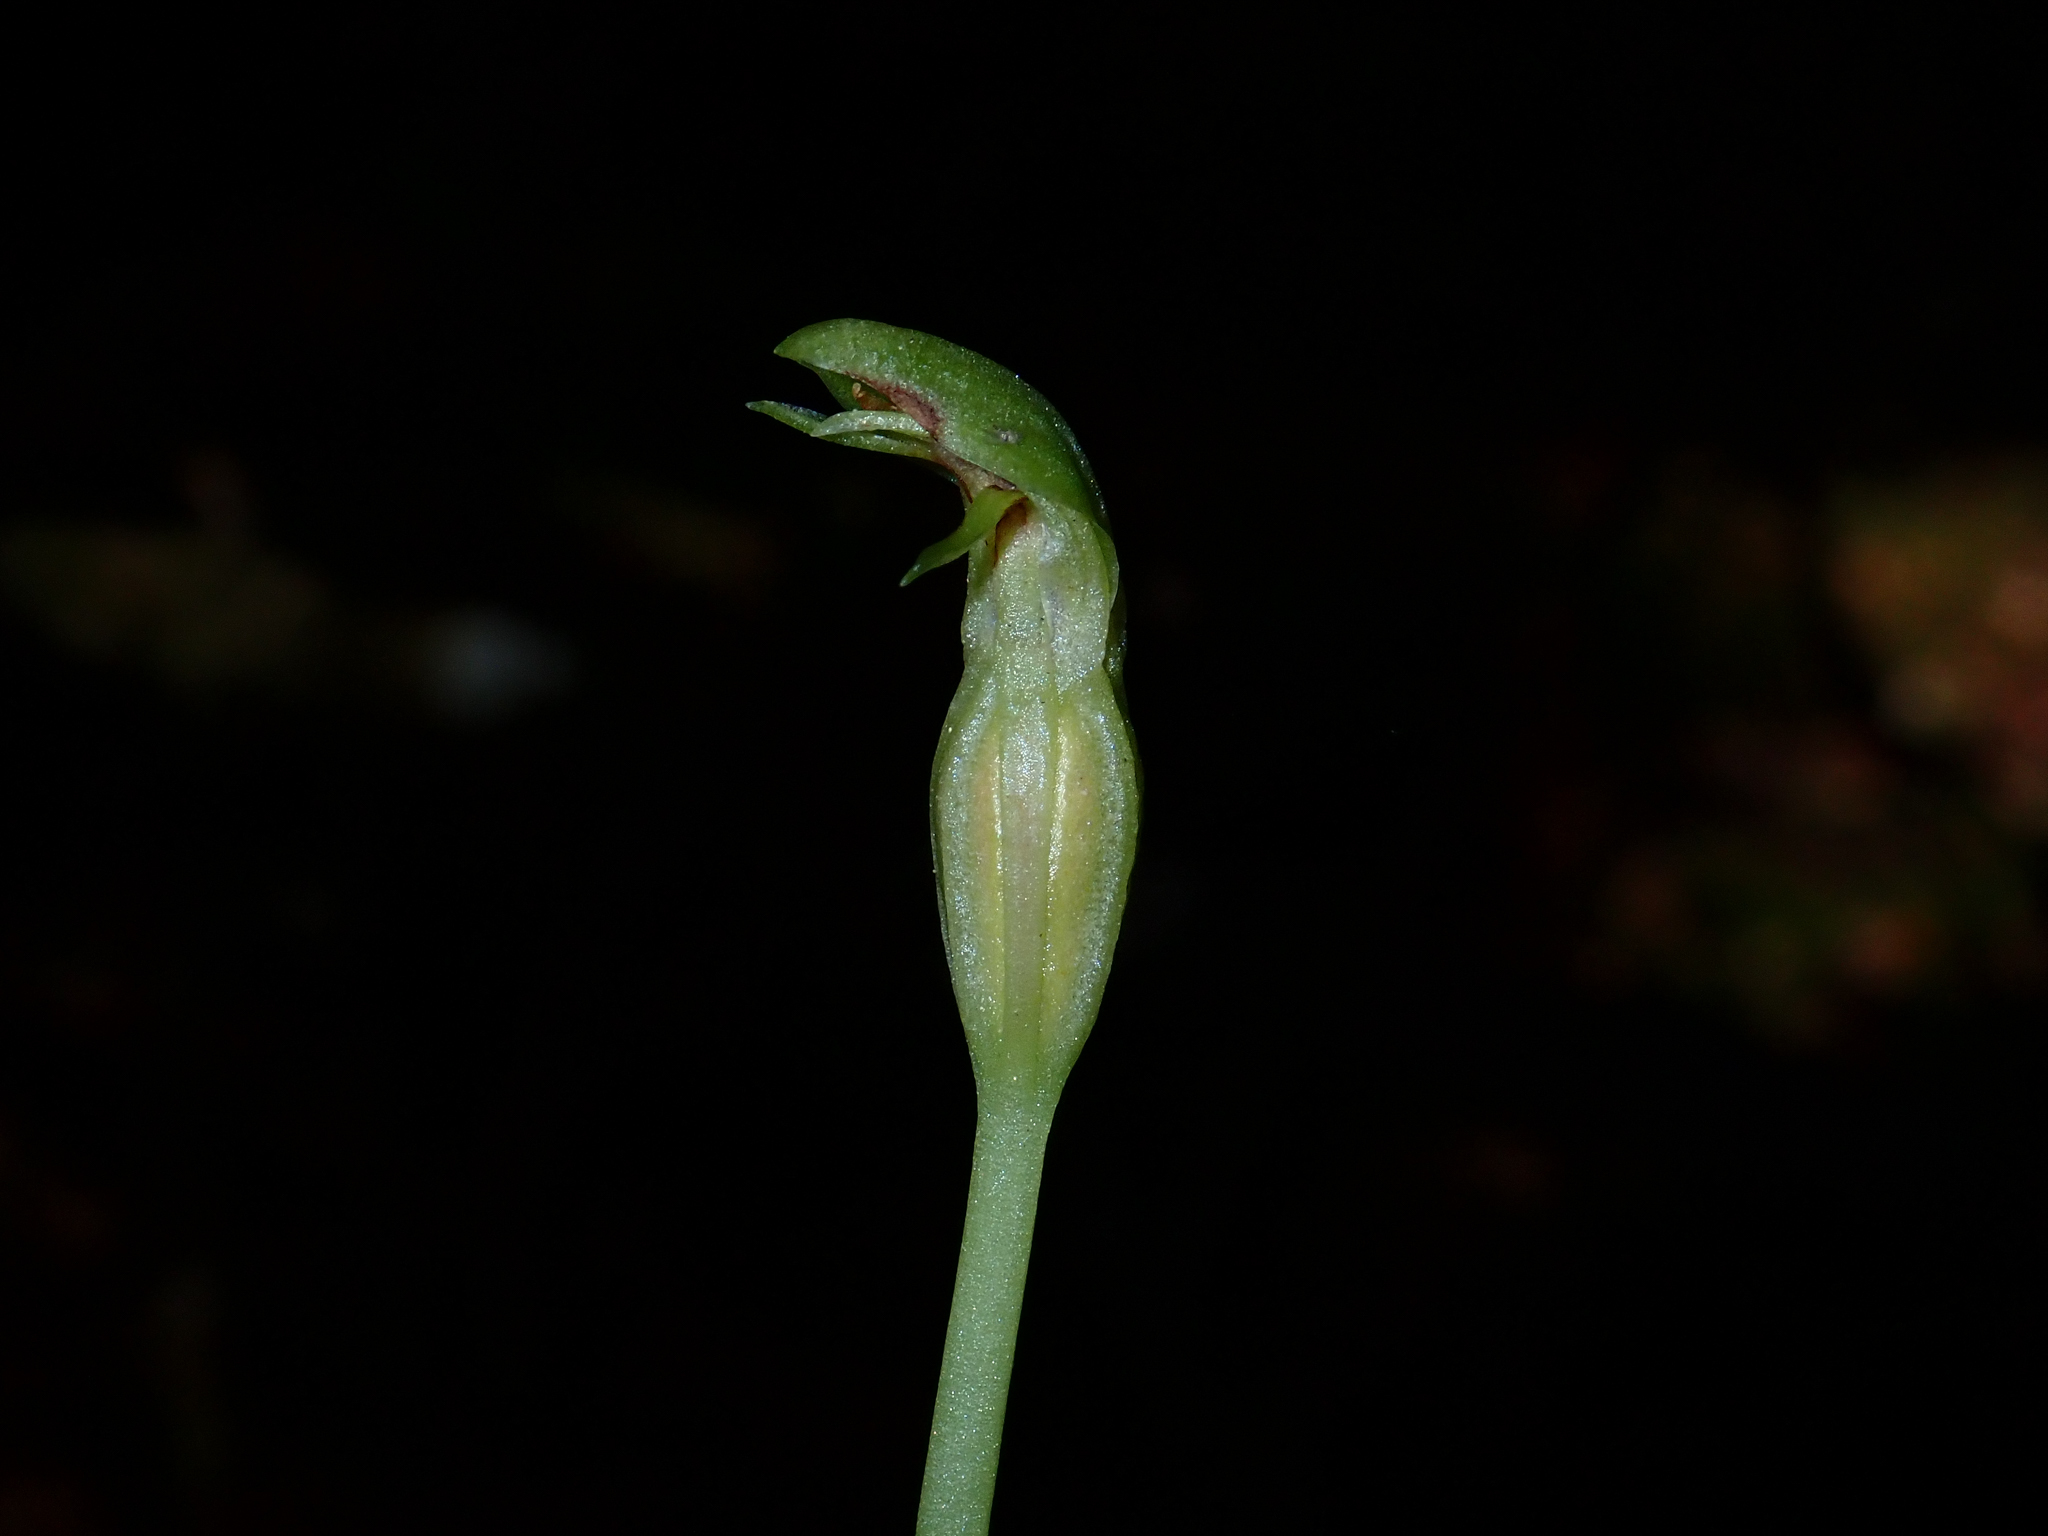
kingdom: Plantae
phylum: Tracheophyta
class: Liliopsida
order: Asparagales
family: Orchidaceae
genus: Chiloglottis
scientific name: Chiloglottis cornuta
